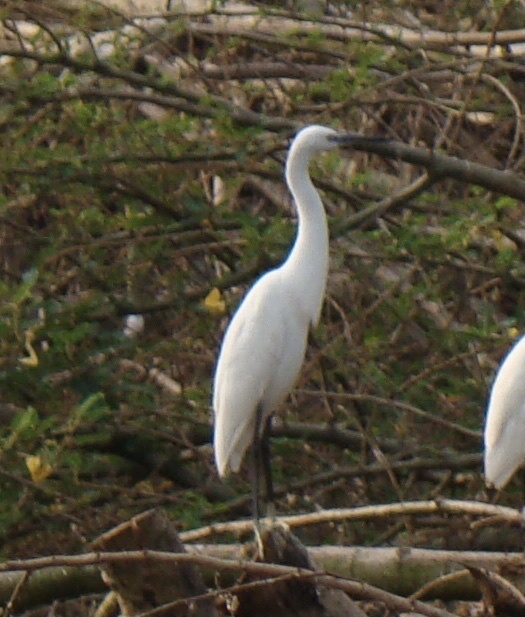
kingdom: Animalia
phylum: Chordata
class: Aves
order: Pelecaniformes
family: Ardeidae
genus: Egretta
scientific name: Egretta garzetta
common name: Little egret
